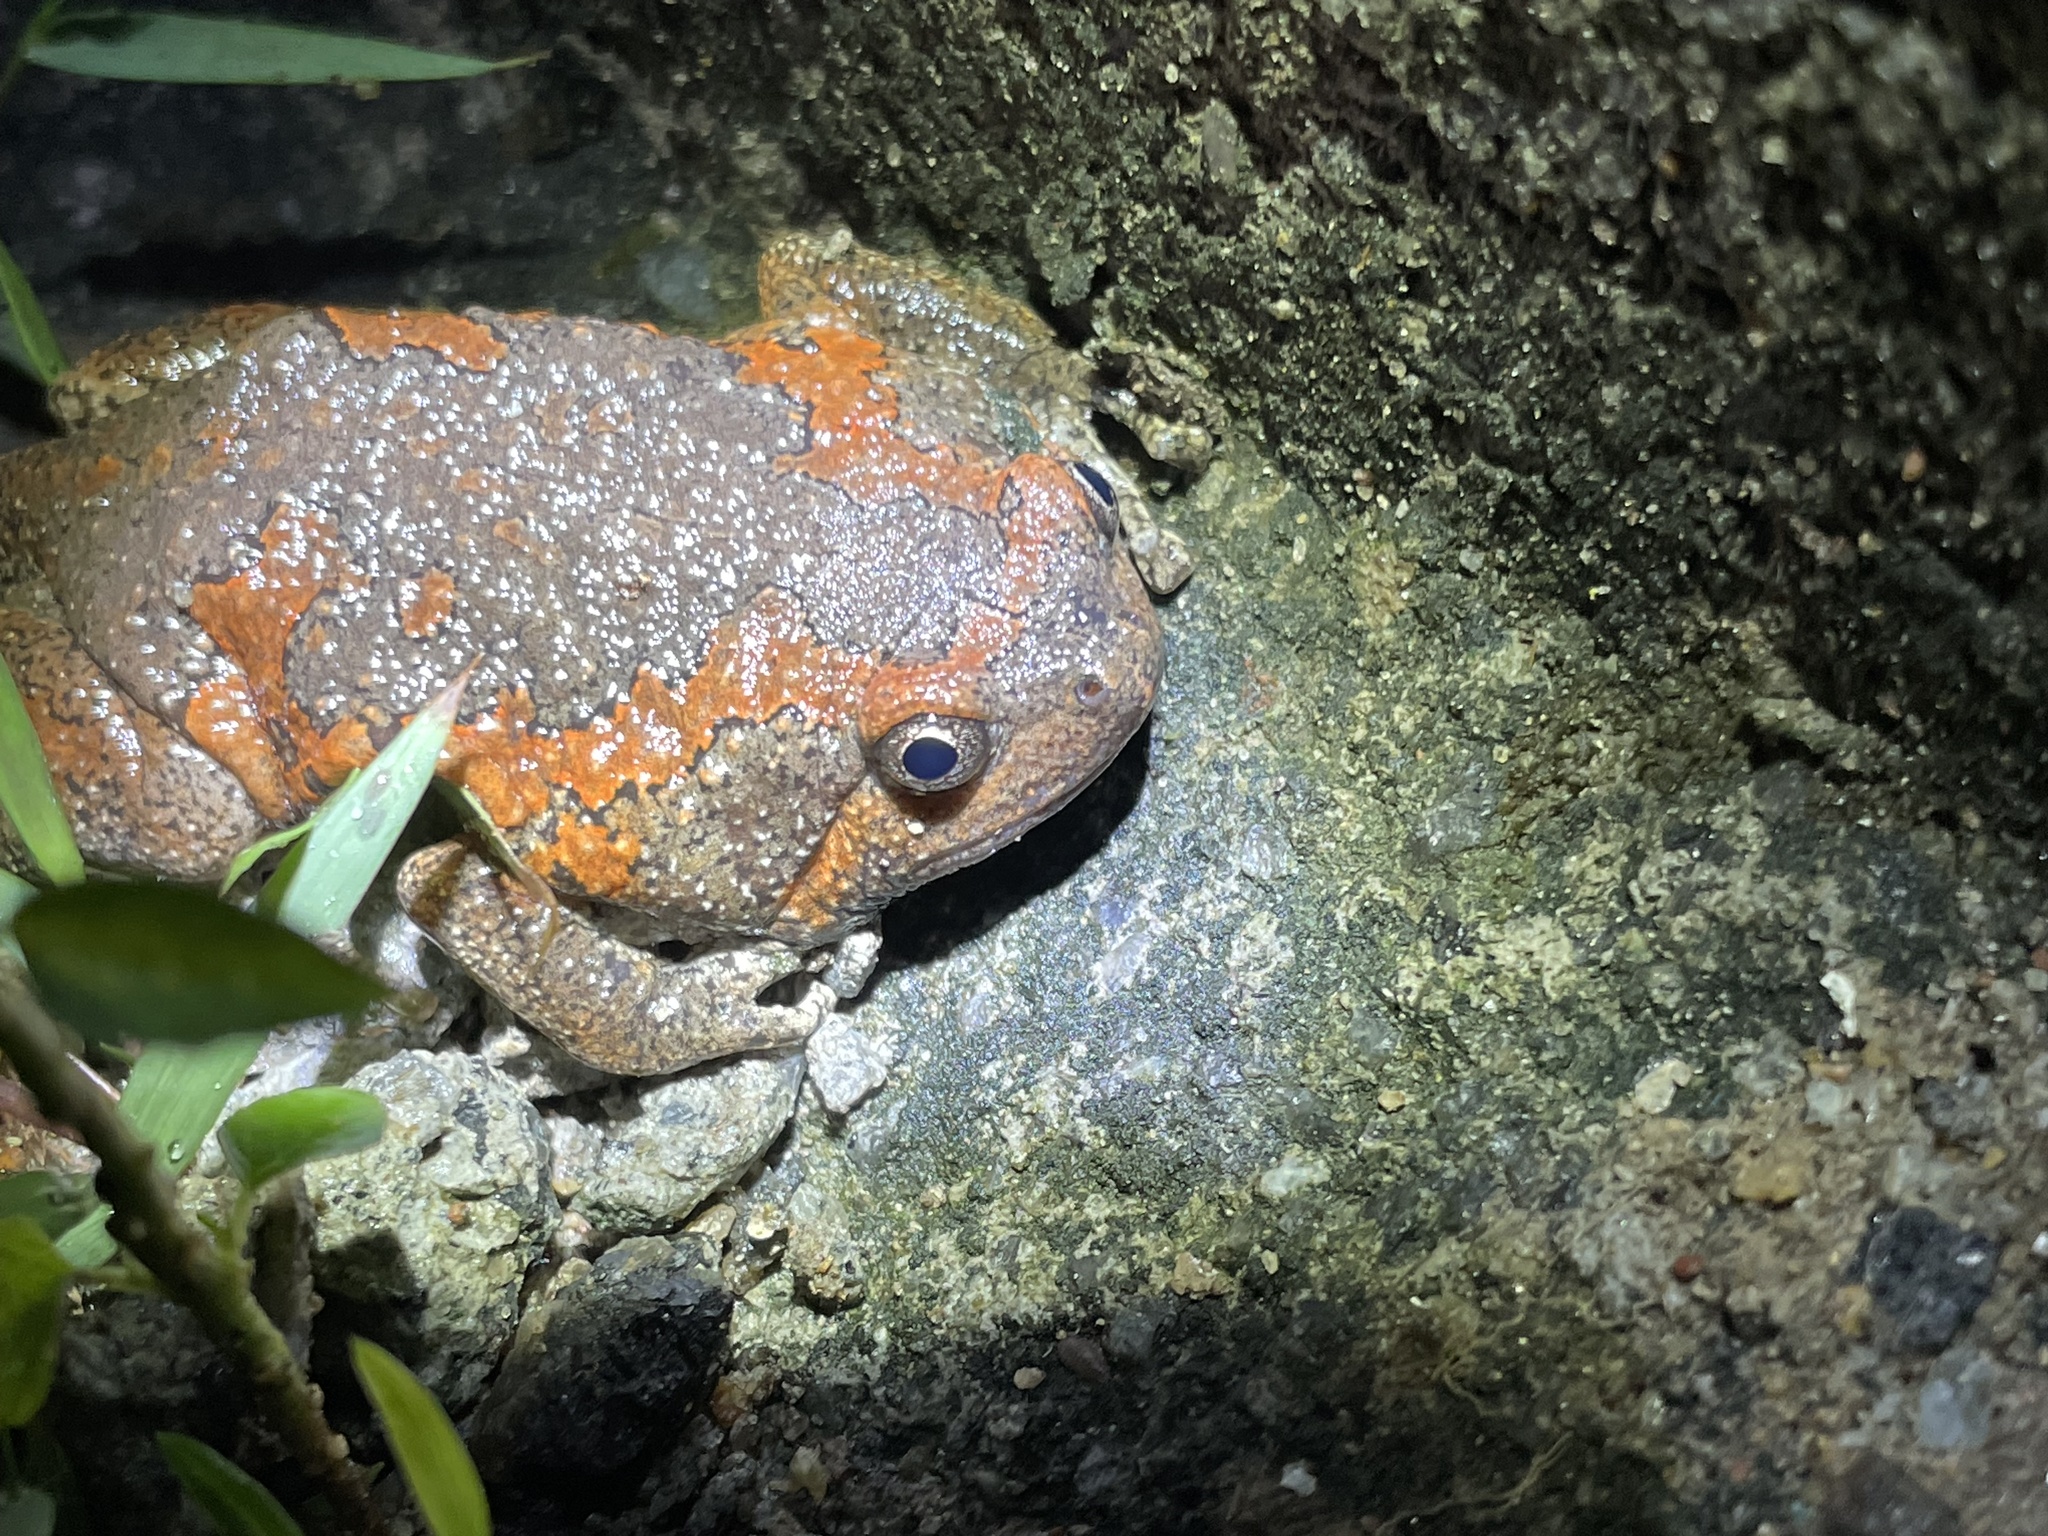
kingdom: Animalia
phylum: Chordata
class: Amphibia
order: Anura
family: Microhylidae
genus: Uperodon
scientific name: Uperodon taprobanicus
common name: Ceylon kaloula
